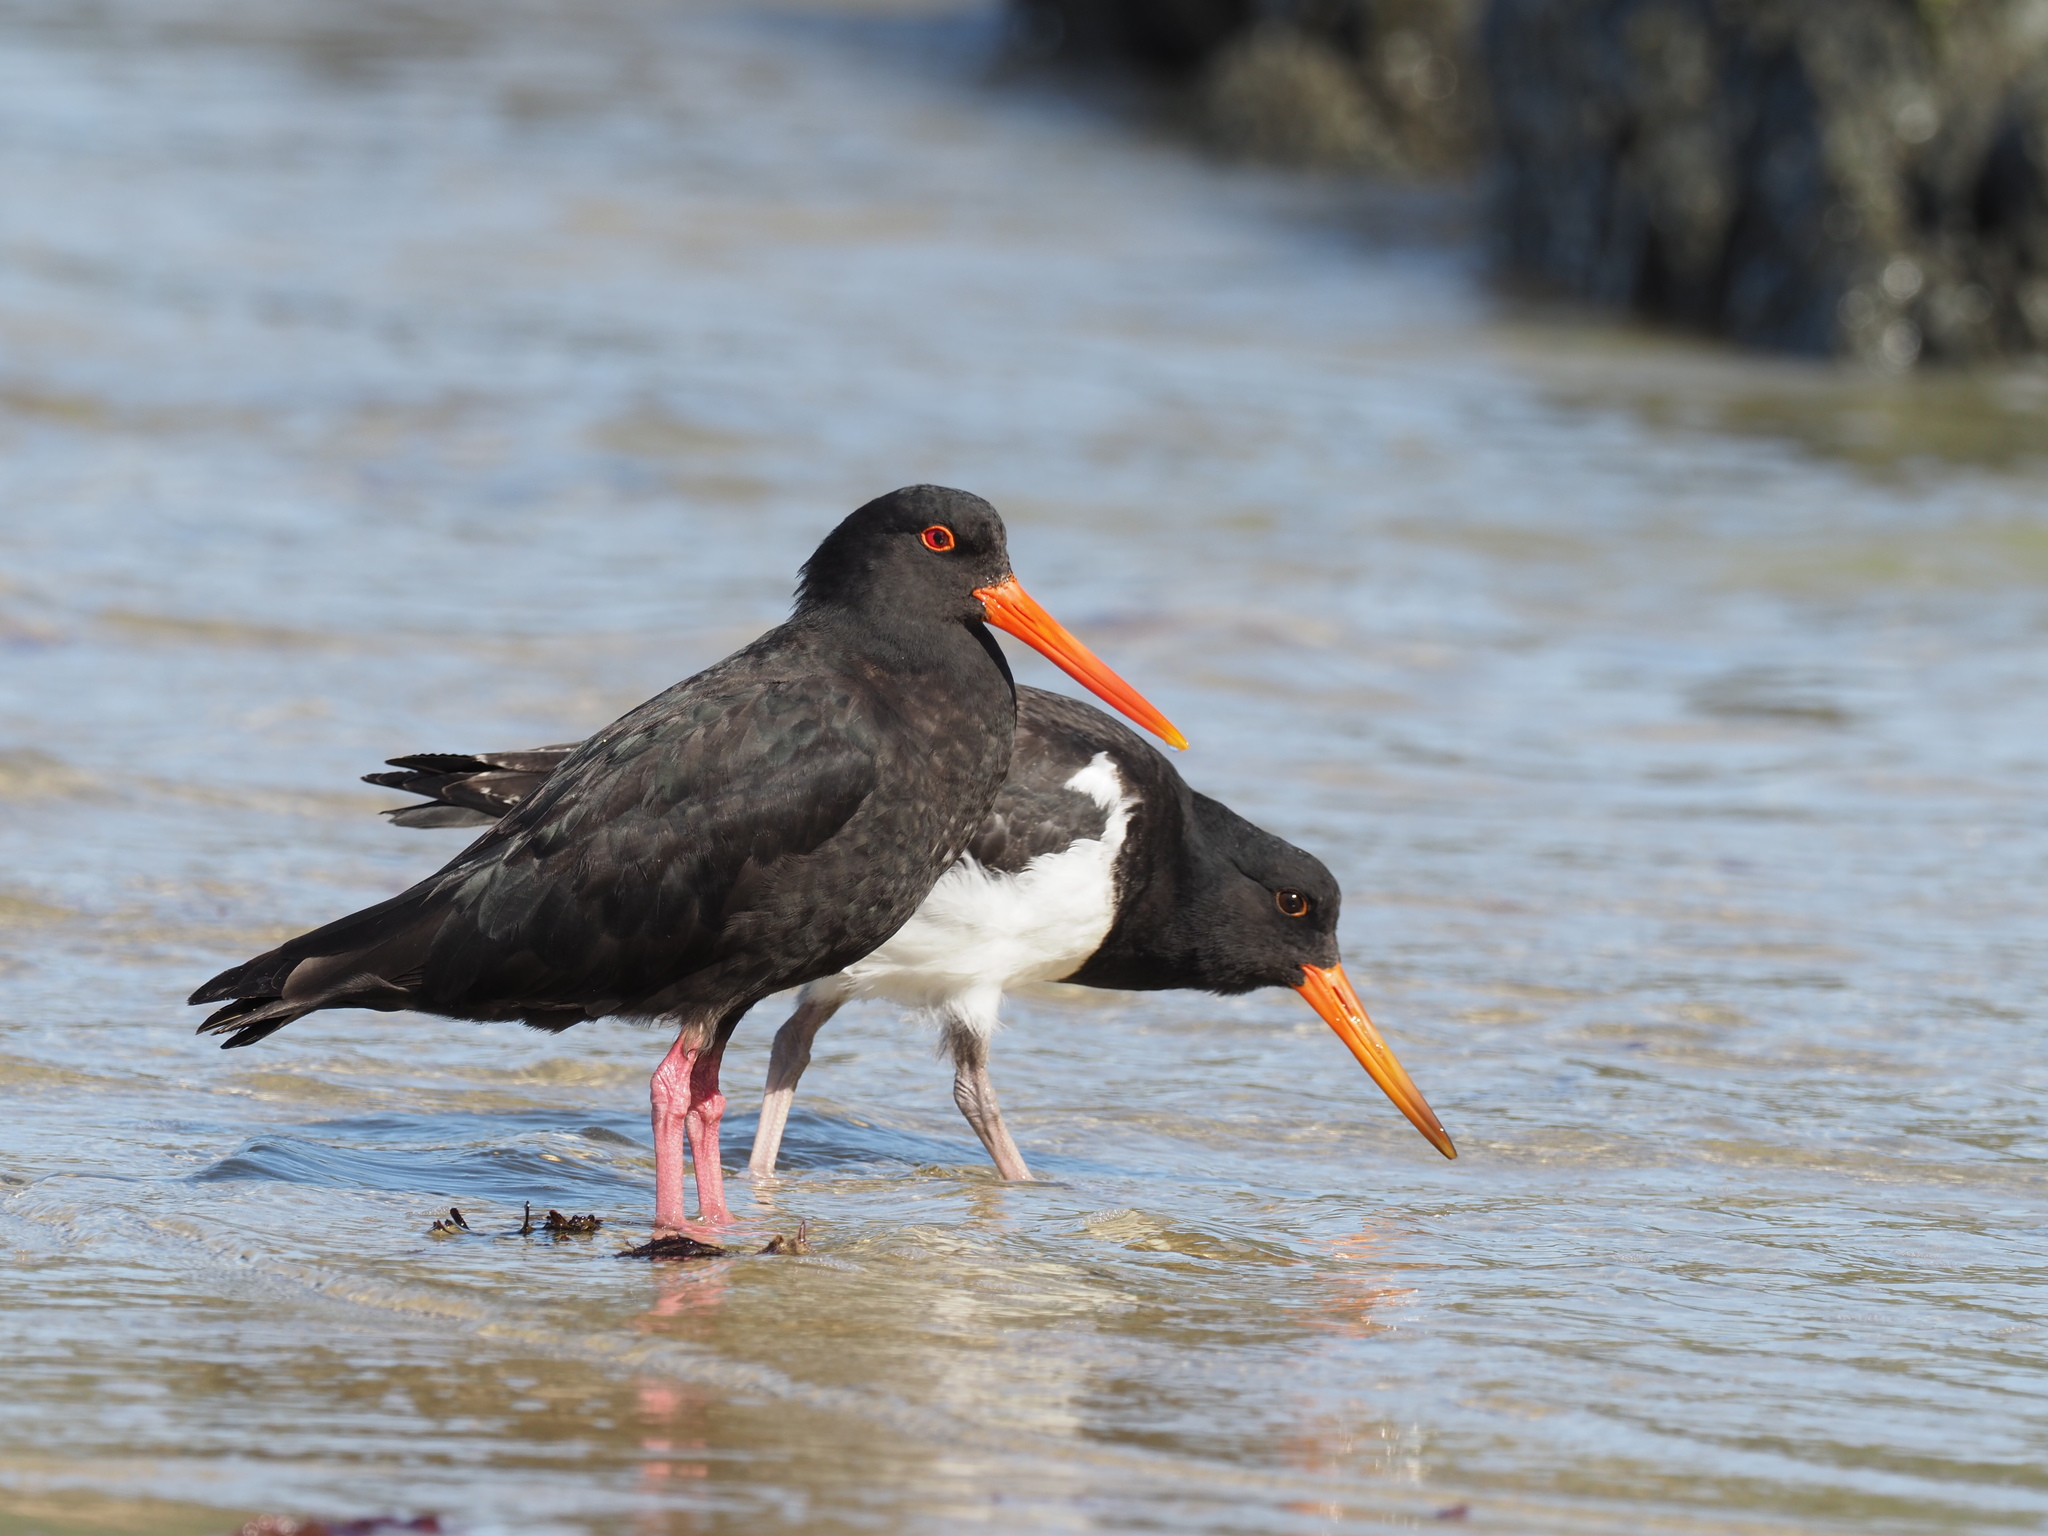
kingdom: Animalia
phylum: Chordata
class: Aves
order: Charadriiformes
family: Haematopodidae
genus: Haematopus
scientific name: Haematopus unicolor
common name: Variable oystercatcher
